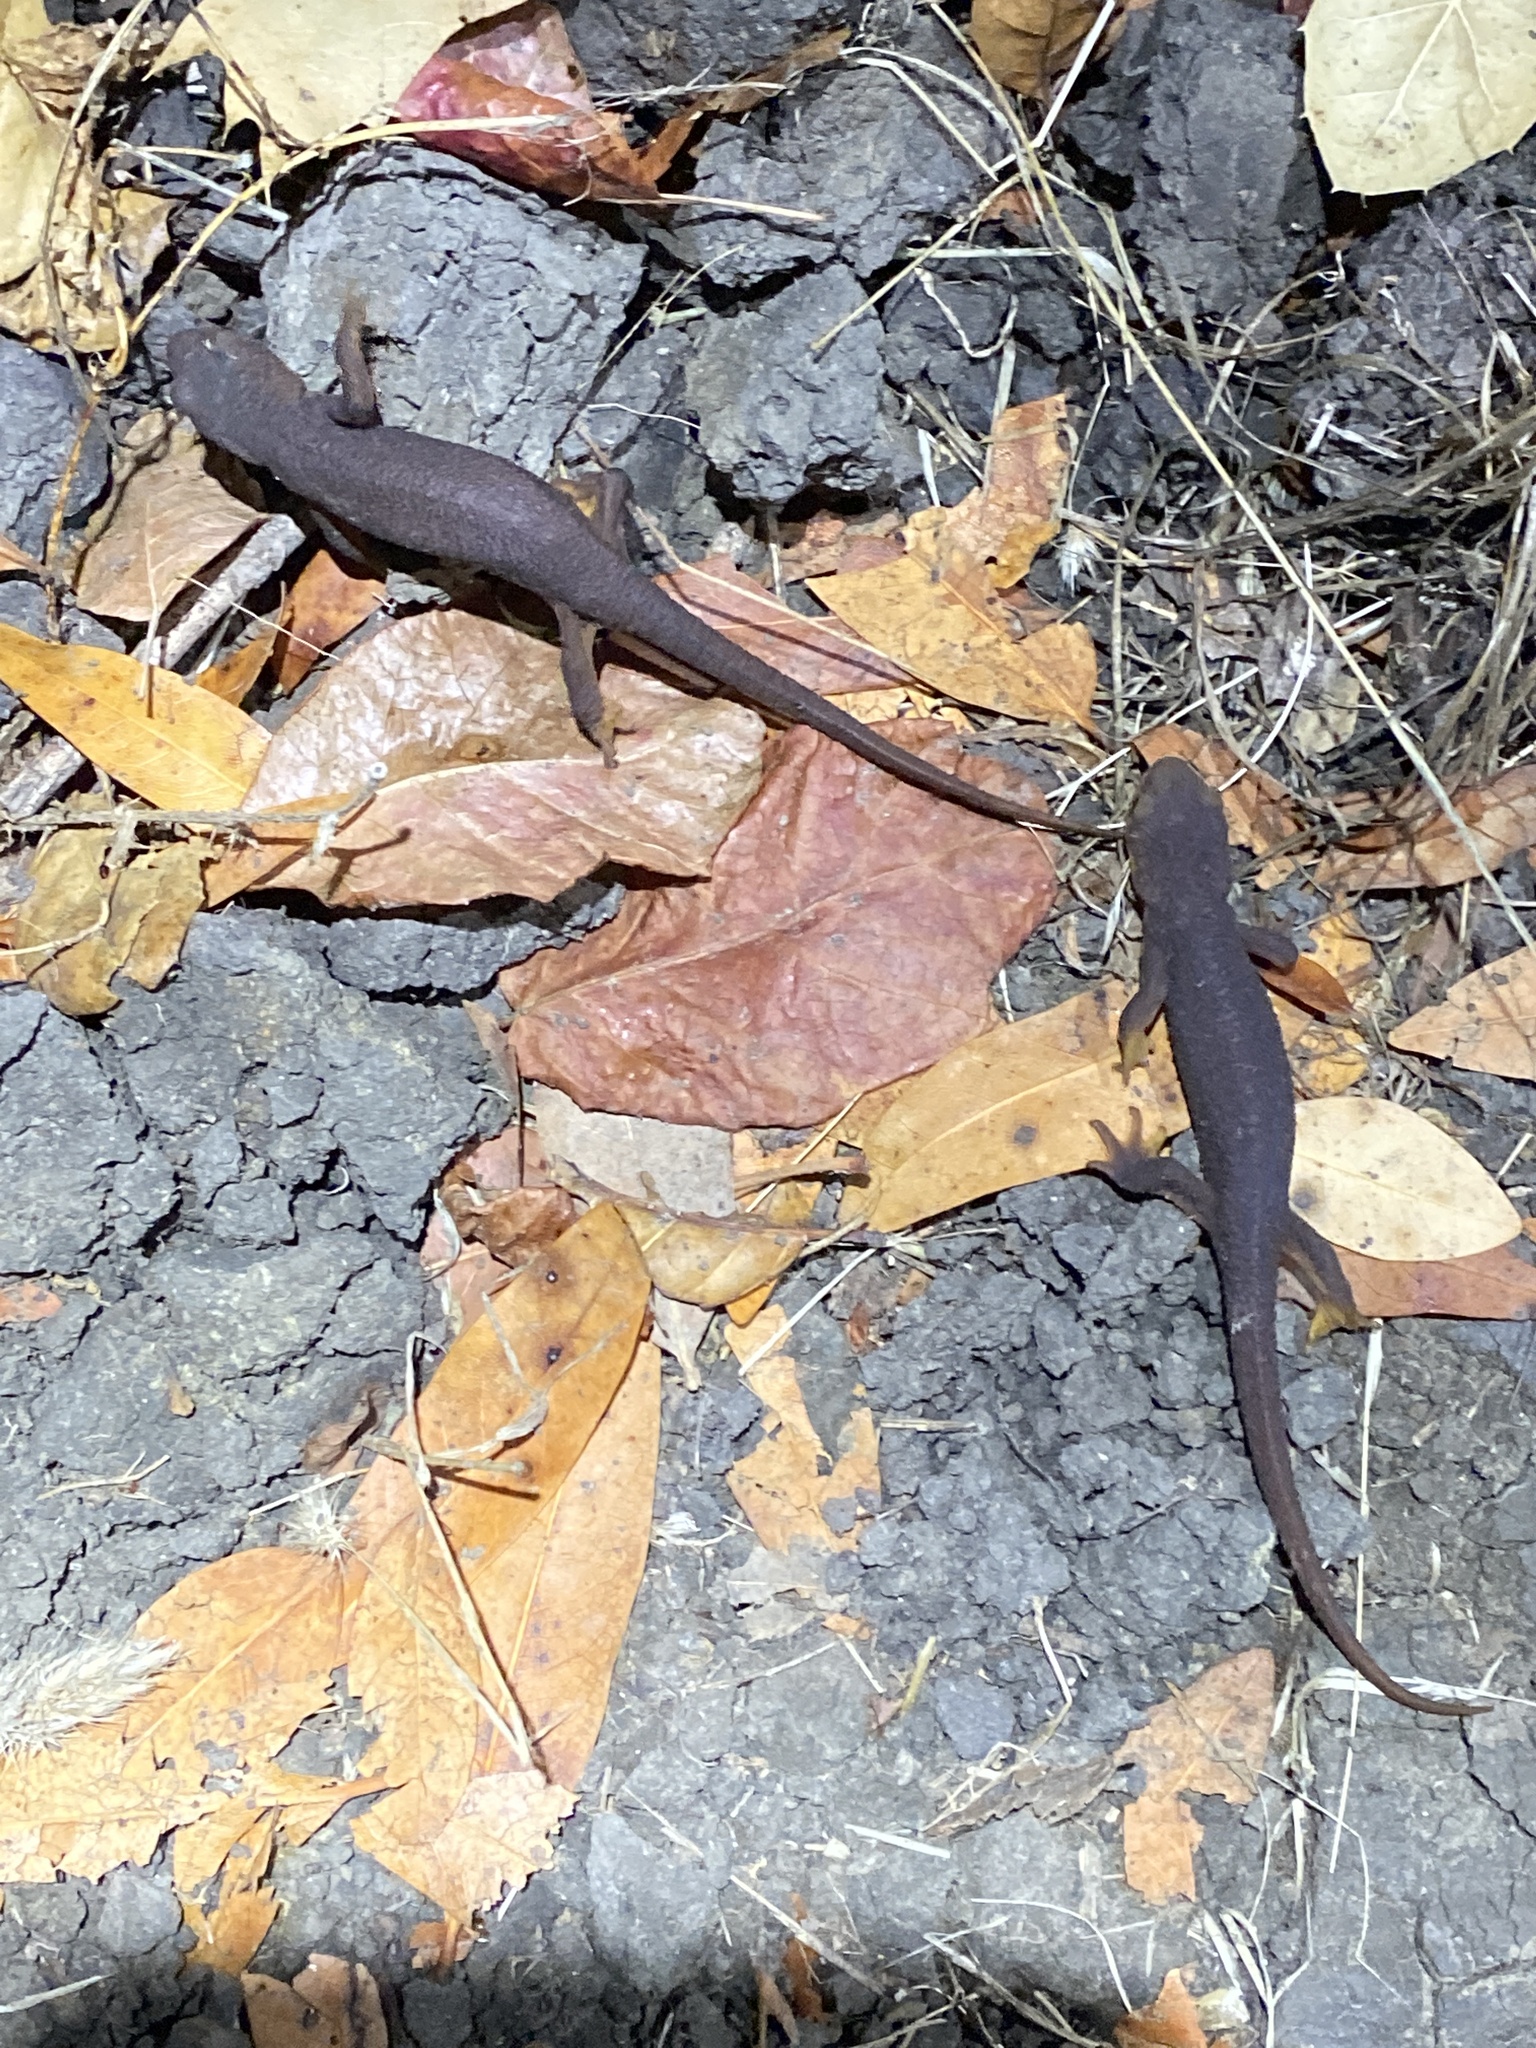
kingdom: Animalia
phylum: Chordata
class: Amphibia
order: Caudata
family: Salamandridae
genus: Taricha
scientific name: Taricha torosa
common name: California newt
